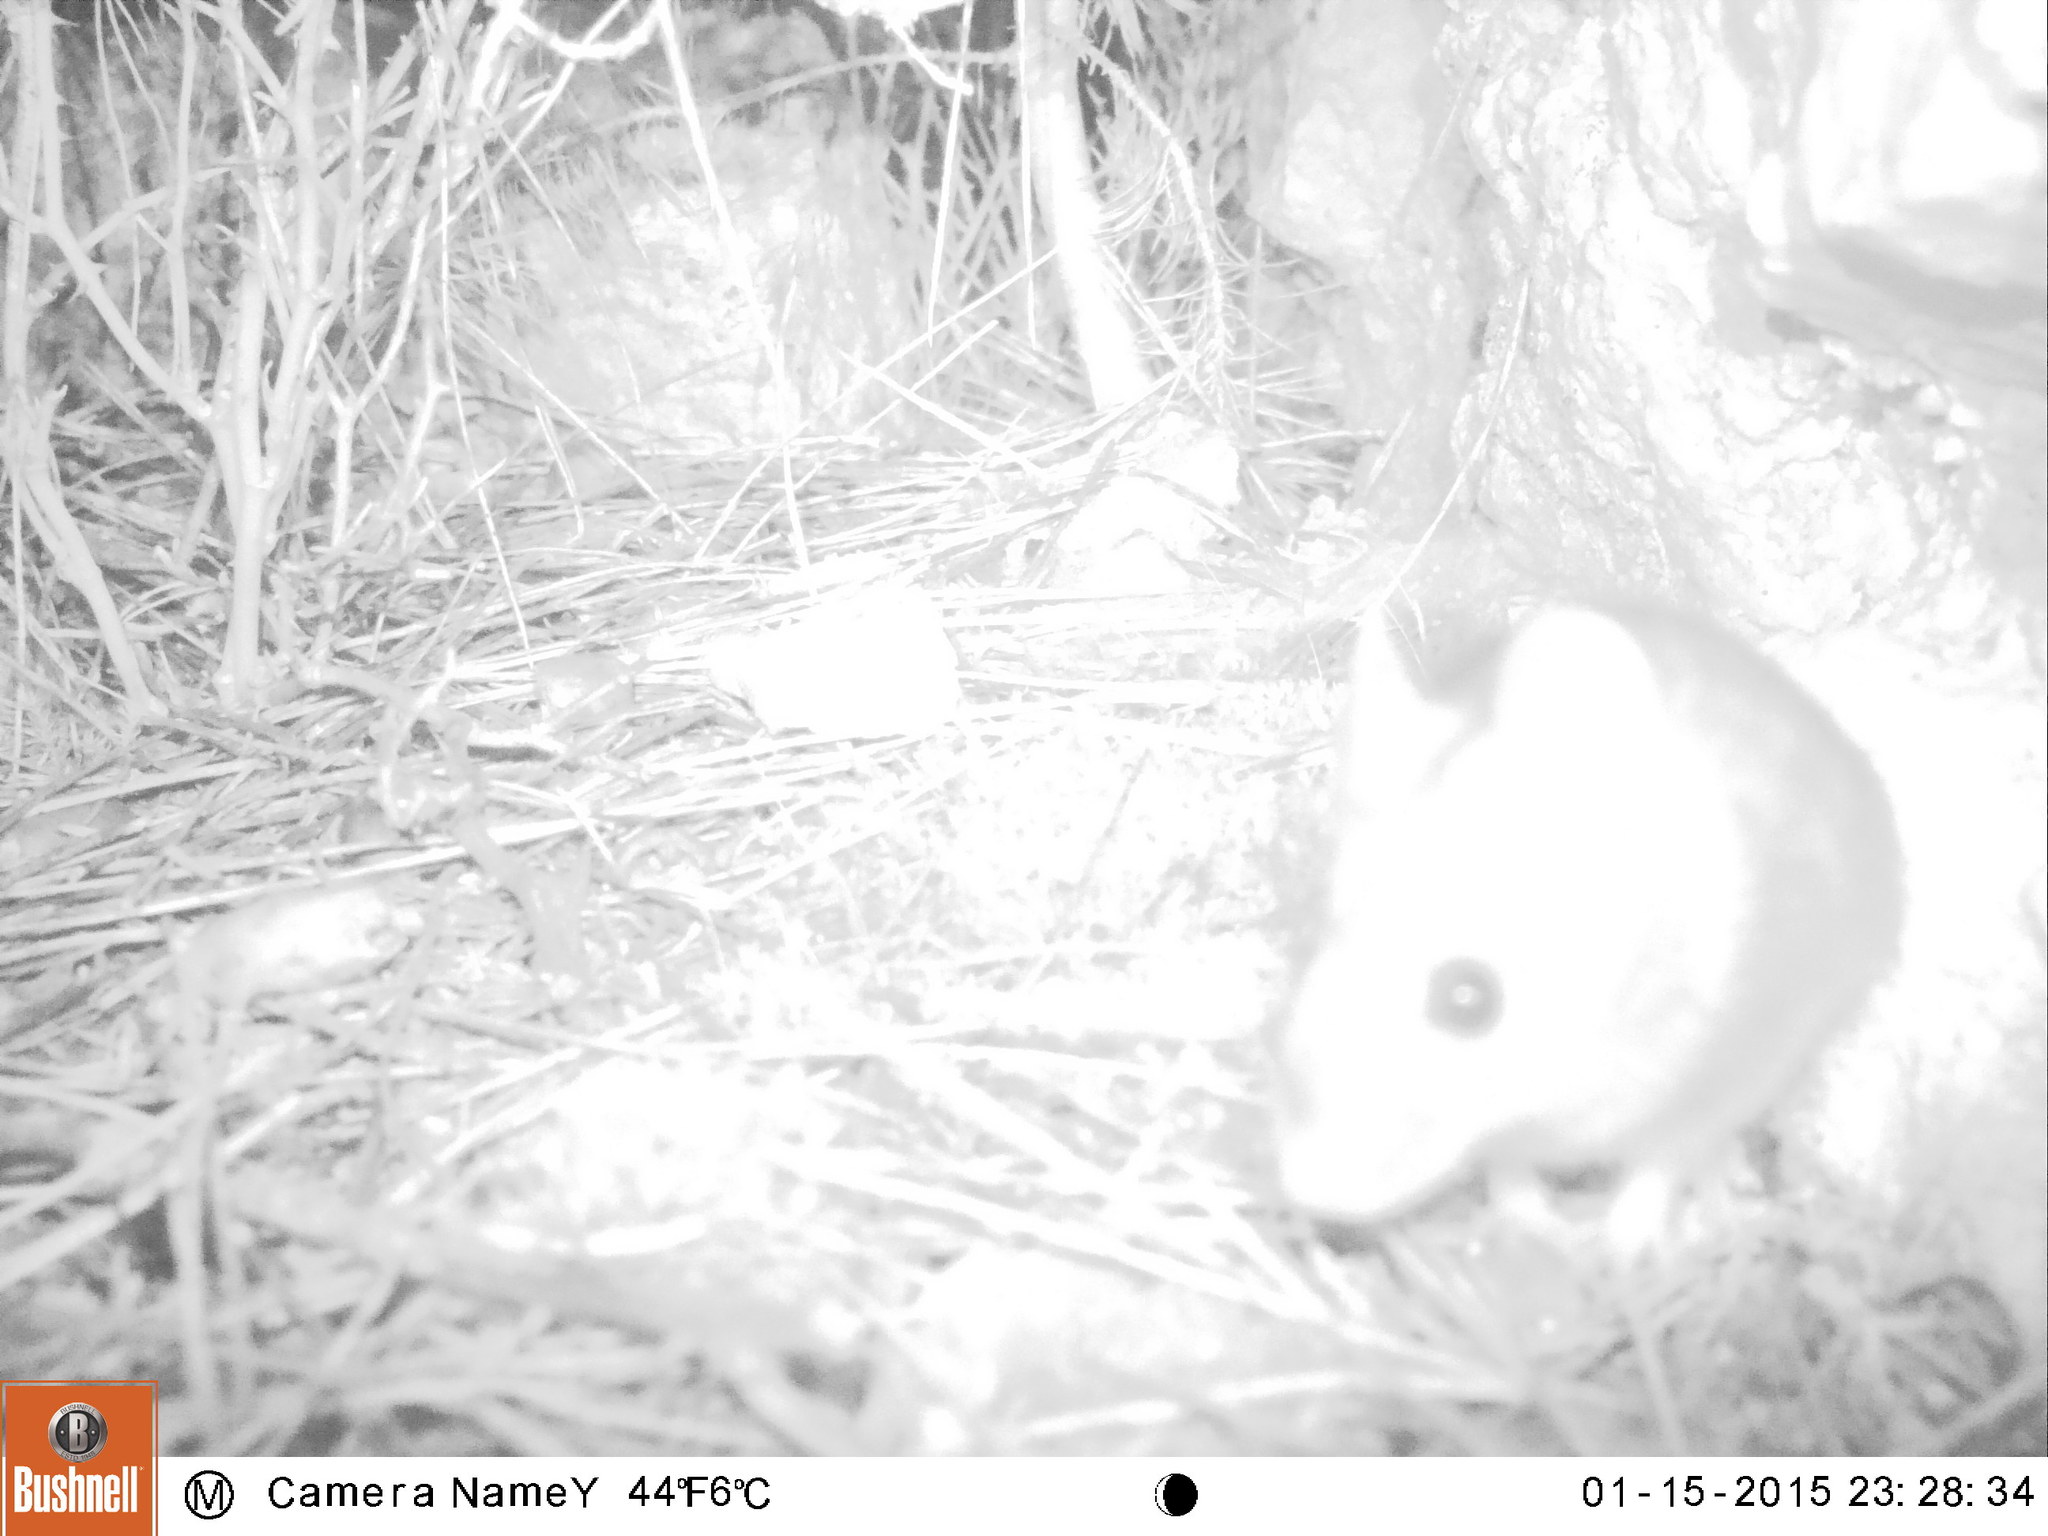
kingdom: Animalia
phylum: Chordata
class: Mammalia
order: Rodentia
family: Muridae
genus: Apodemus
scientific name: Apodemus sylvaticus
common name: Wood mouse
